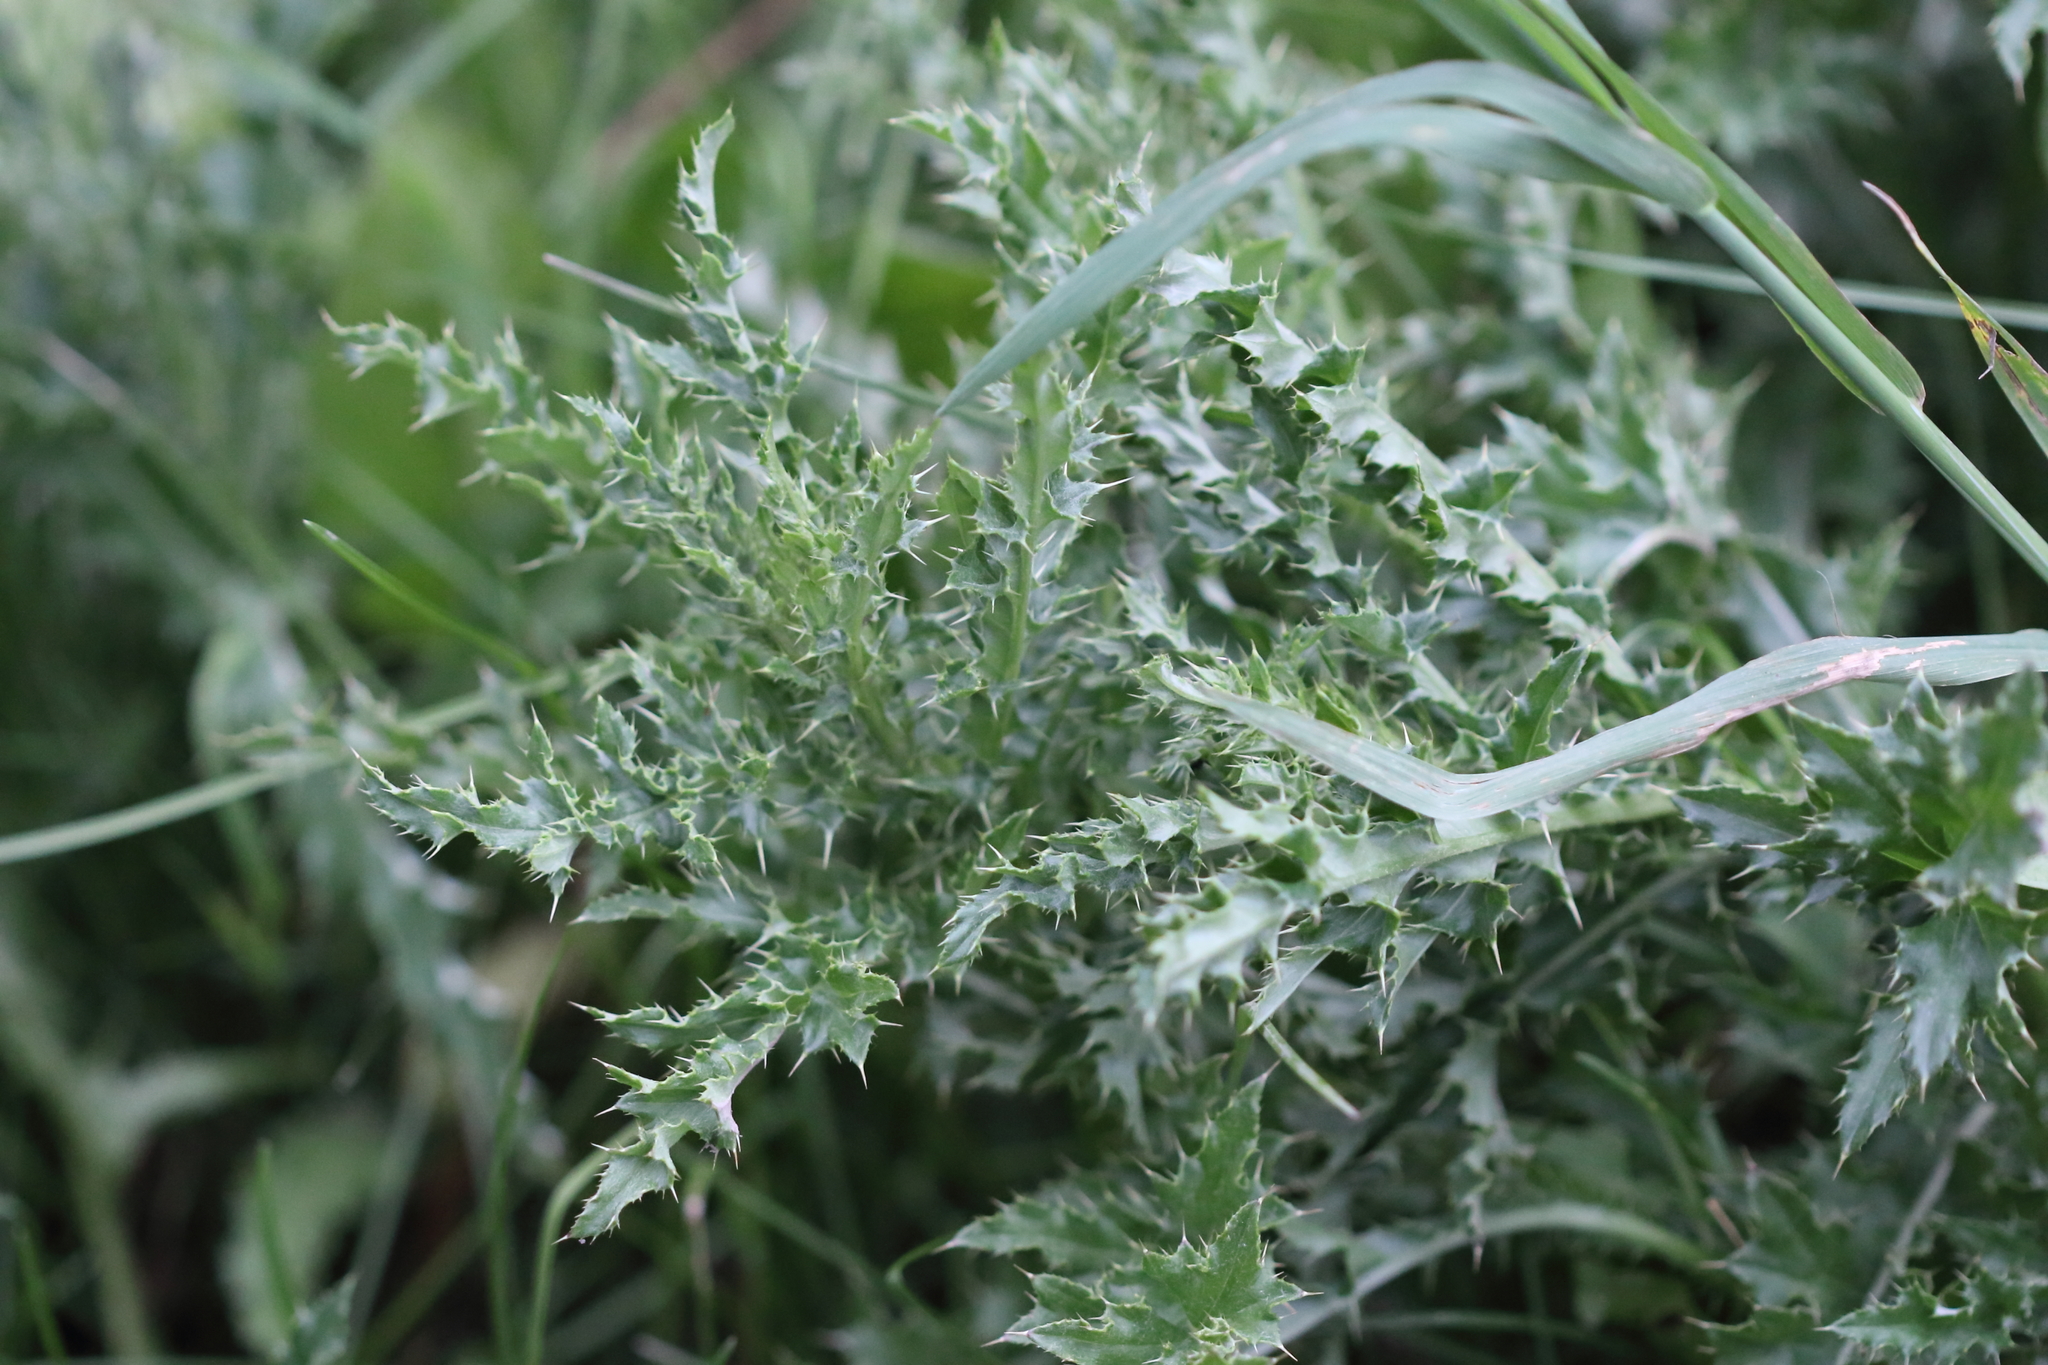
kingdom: Plantae
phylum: Tracheophyta
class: Magnoliopsida
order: Asterales
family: Asteraceae
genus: Cirsium
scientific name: Cirsium arvense
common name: Creeping thistle
